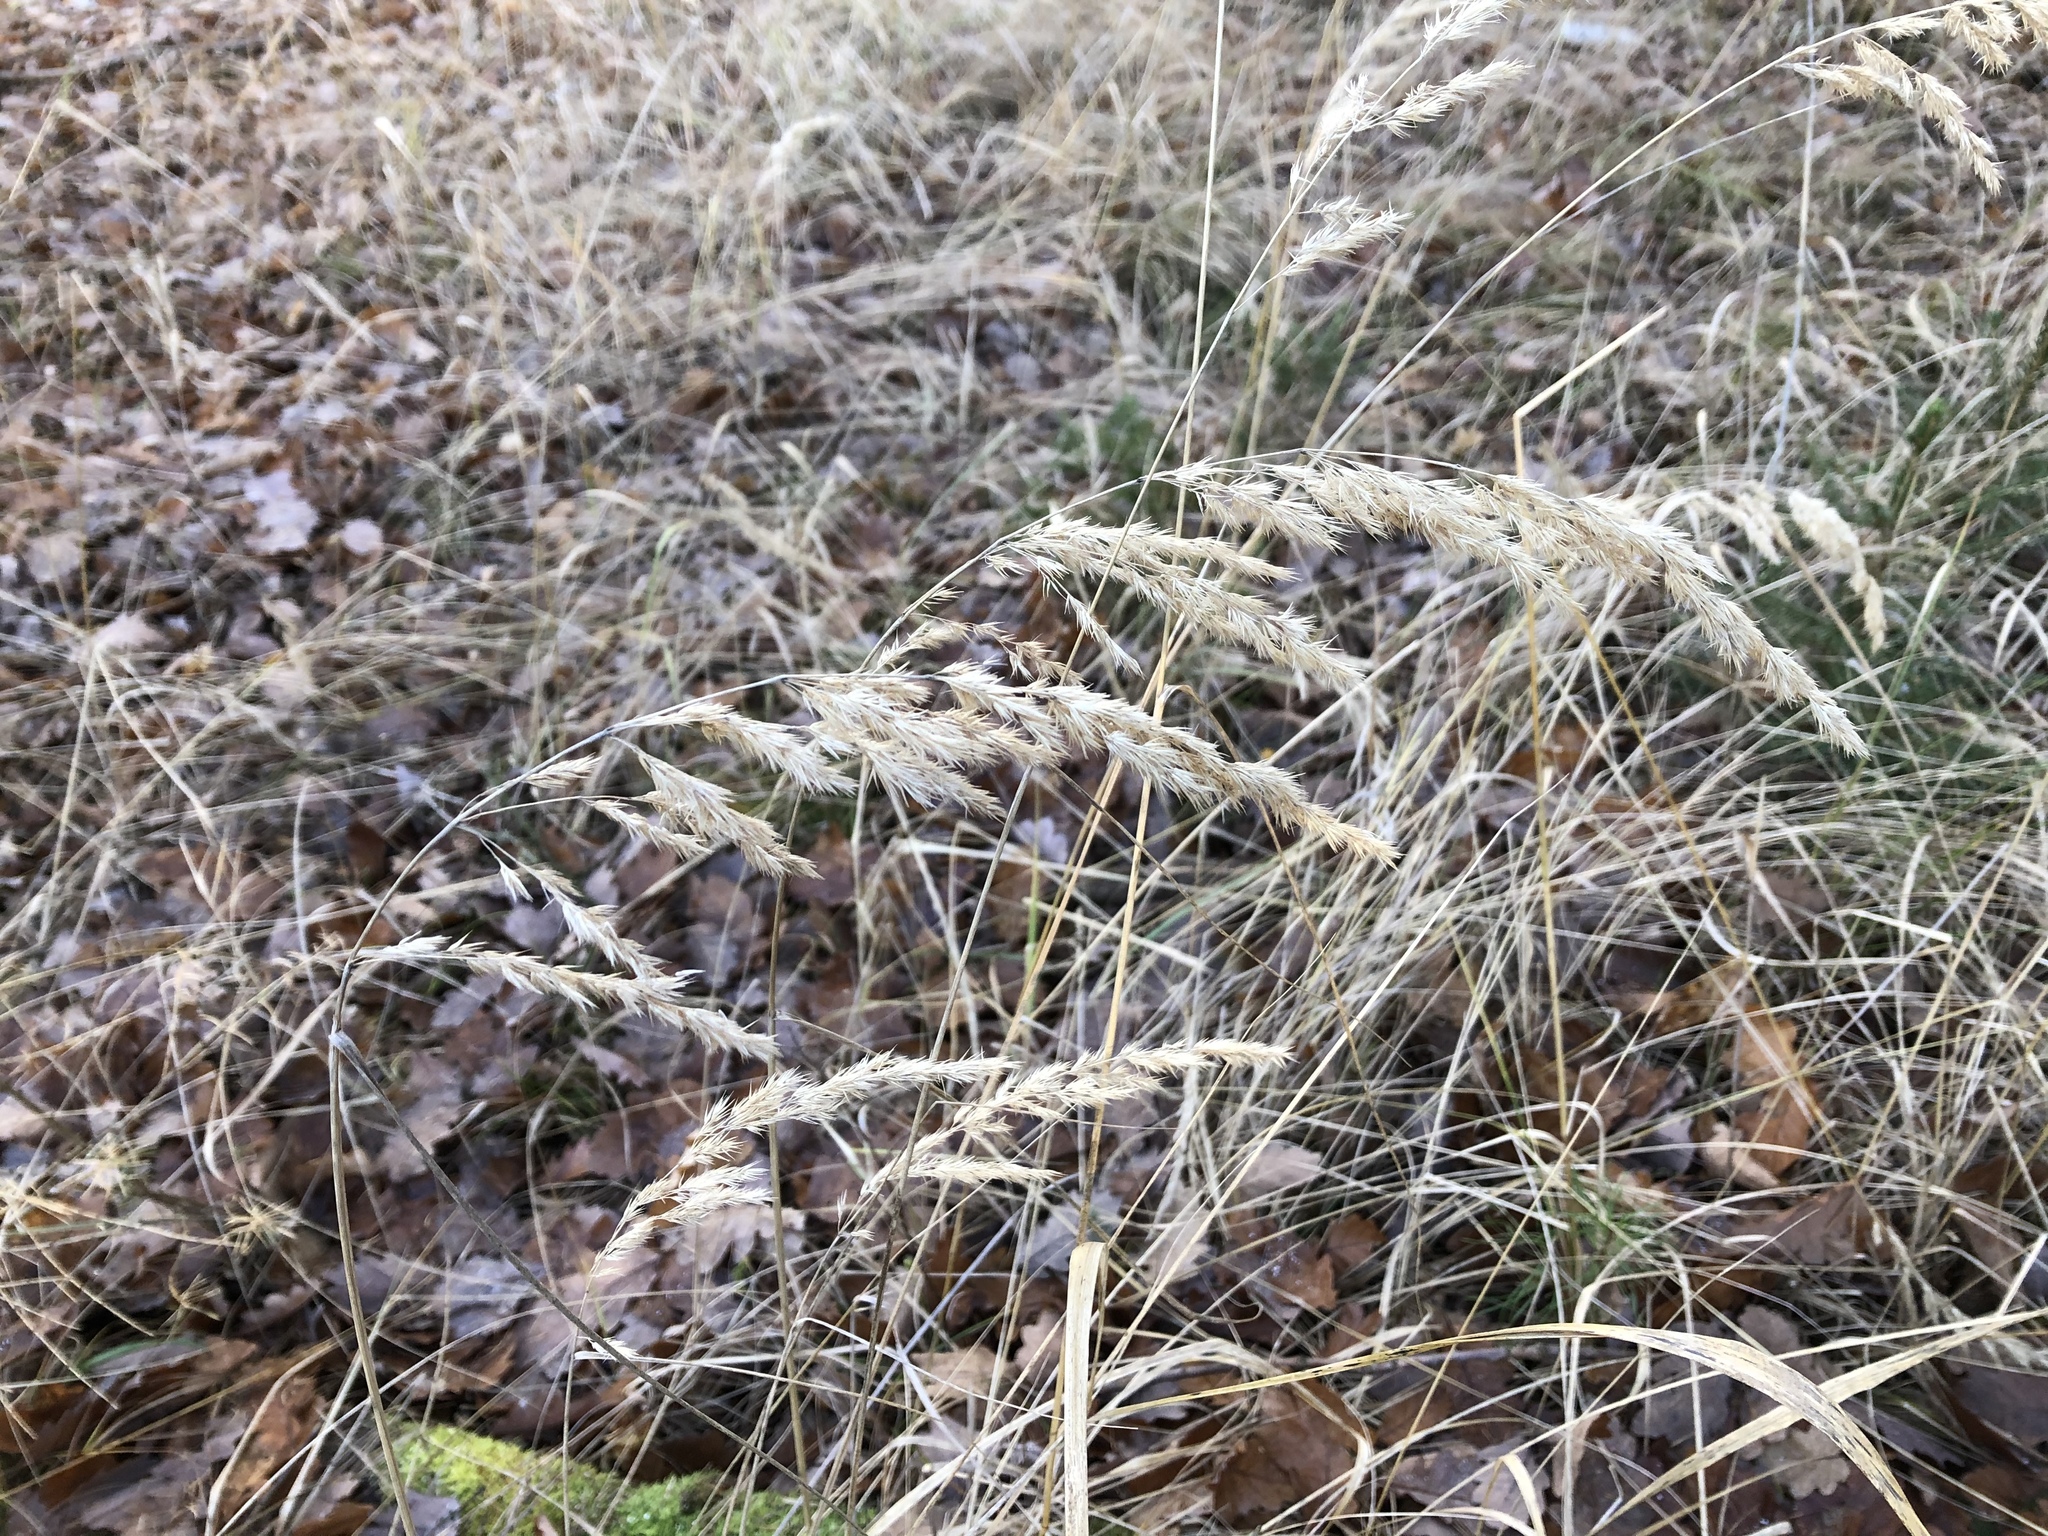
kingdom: Plantae
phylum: Tracheophyta
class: Liliopsida
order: Poales
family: Poaceae
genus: Calamagrostis
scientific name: Calamagrostis epigejos
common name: Wood small-reed
